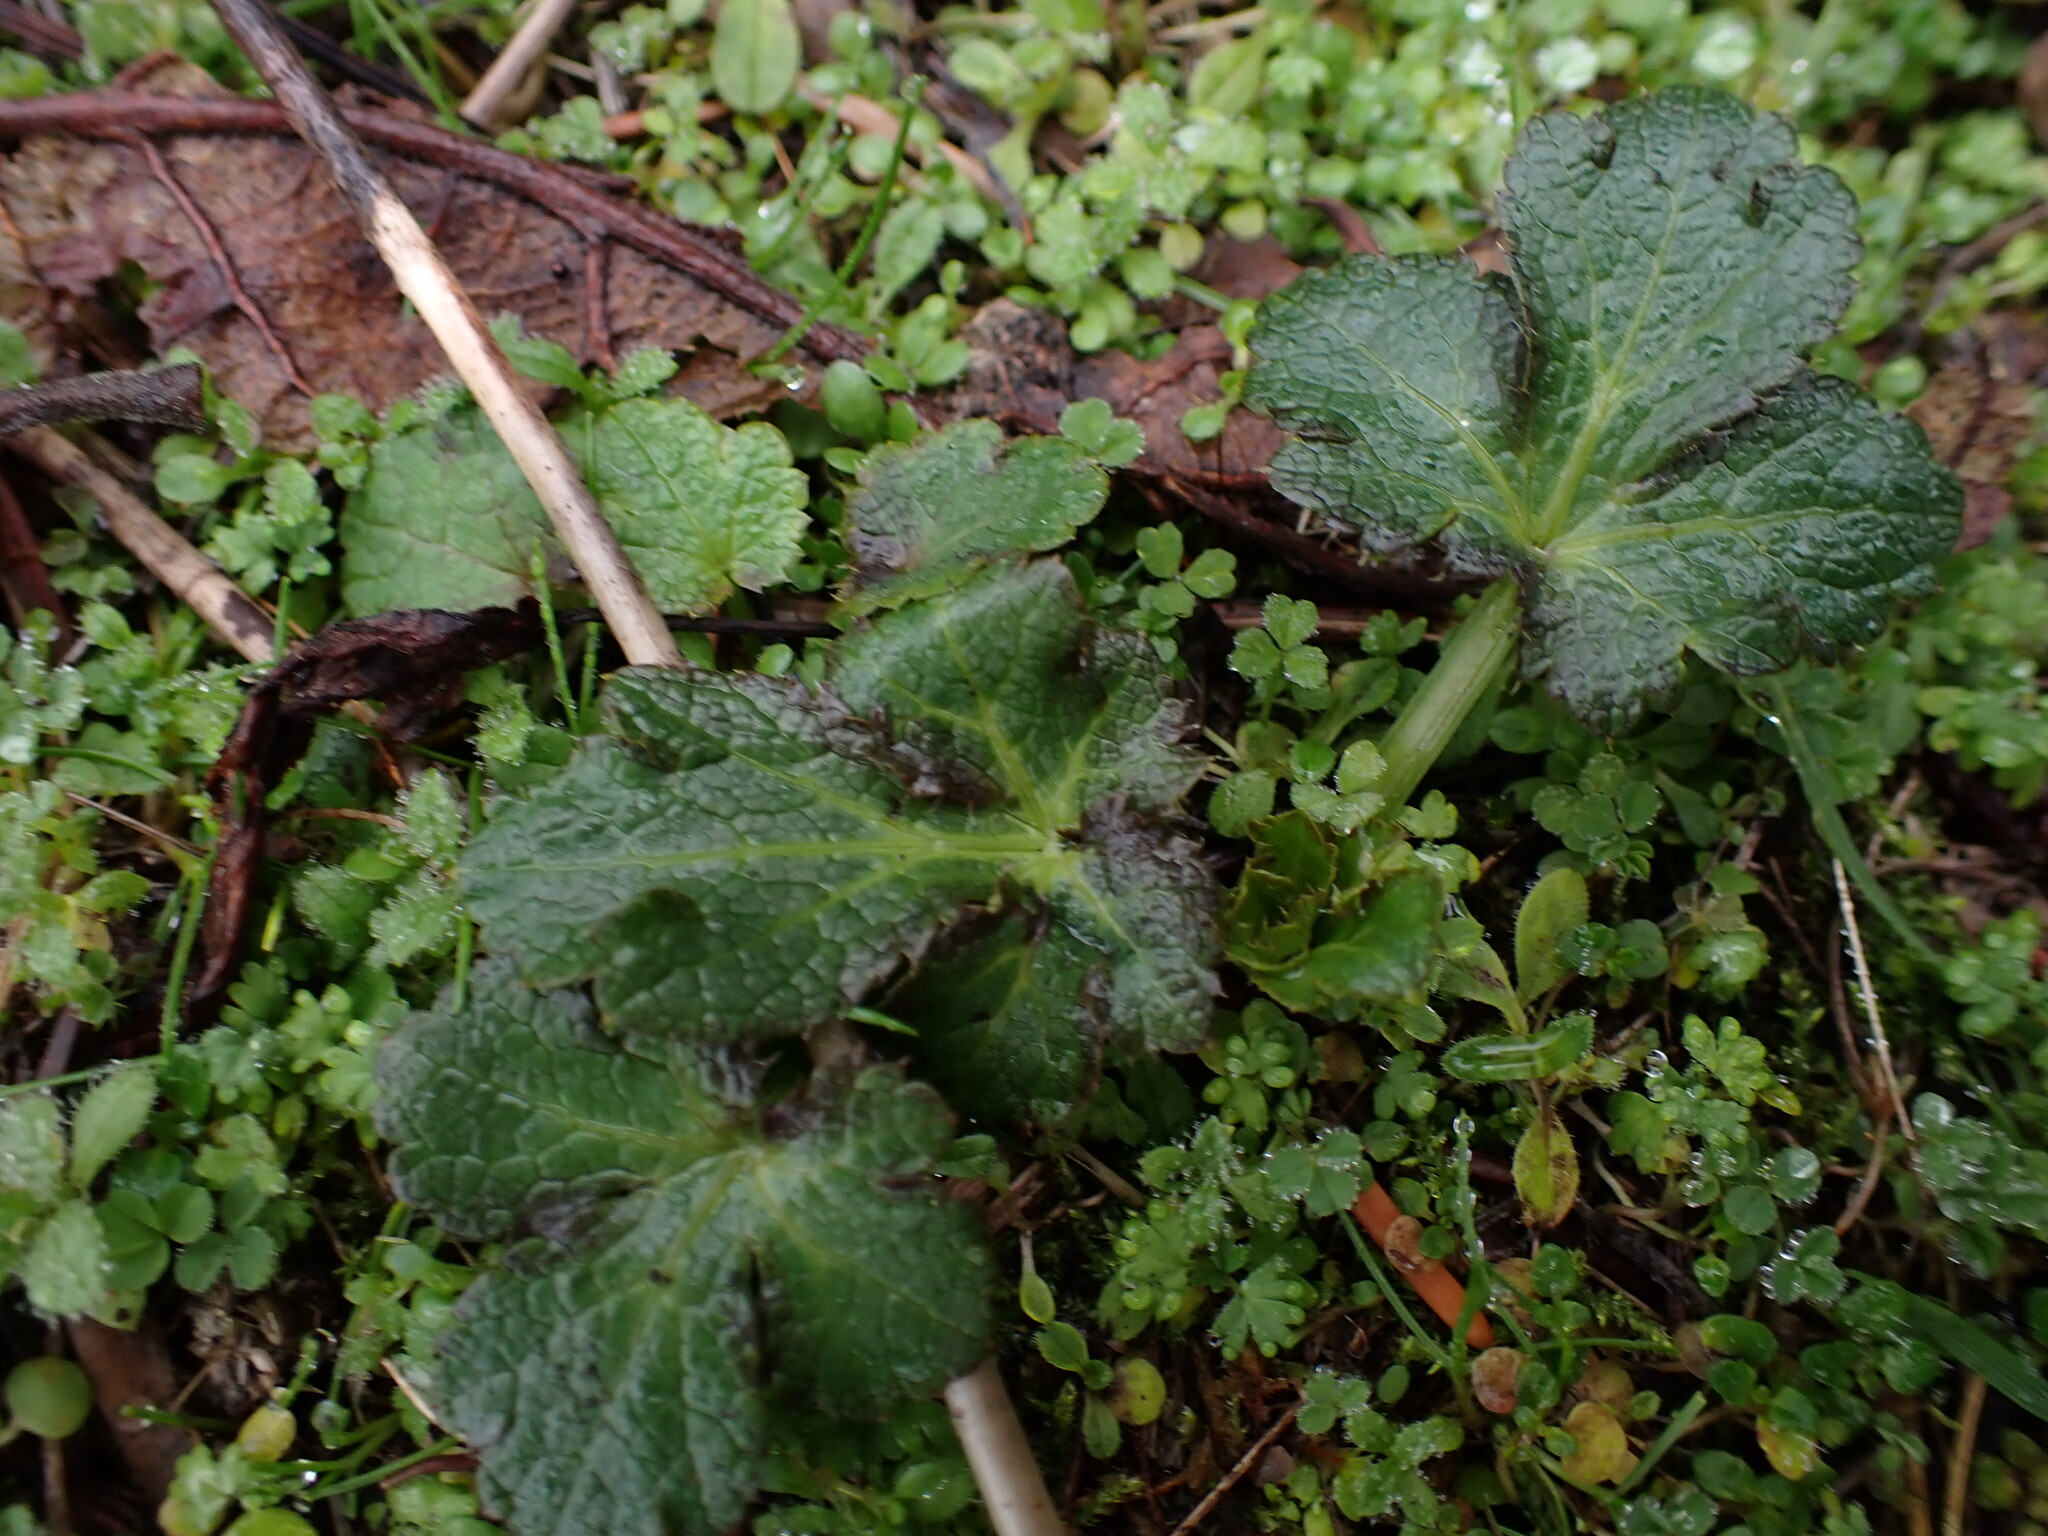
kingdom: Plantae
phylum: Tracheophyta
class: Magnoliopsida
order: Apiales
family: Apiaceae
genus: Sanicula
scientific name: Sanicula crassicaulis
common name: Western snakeroot
